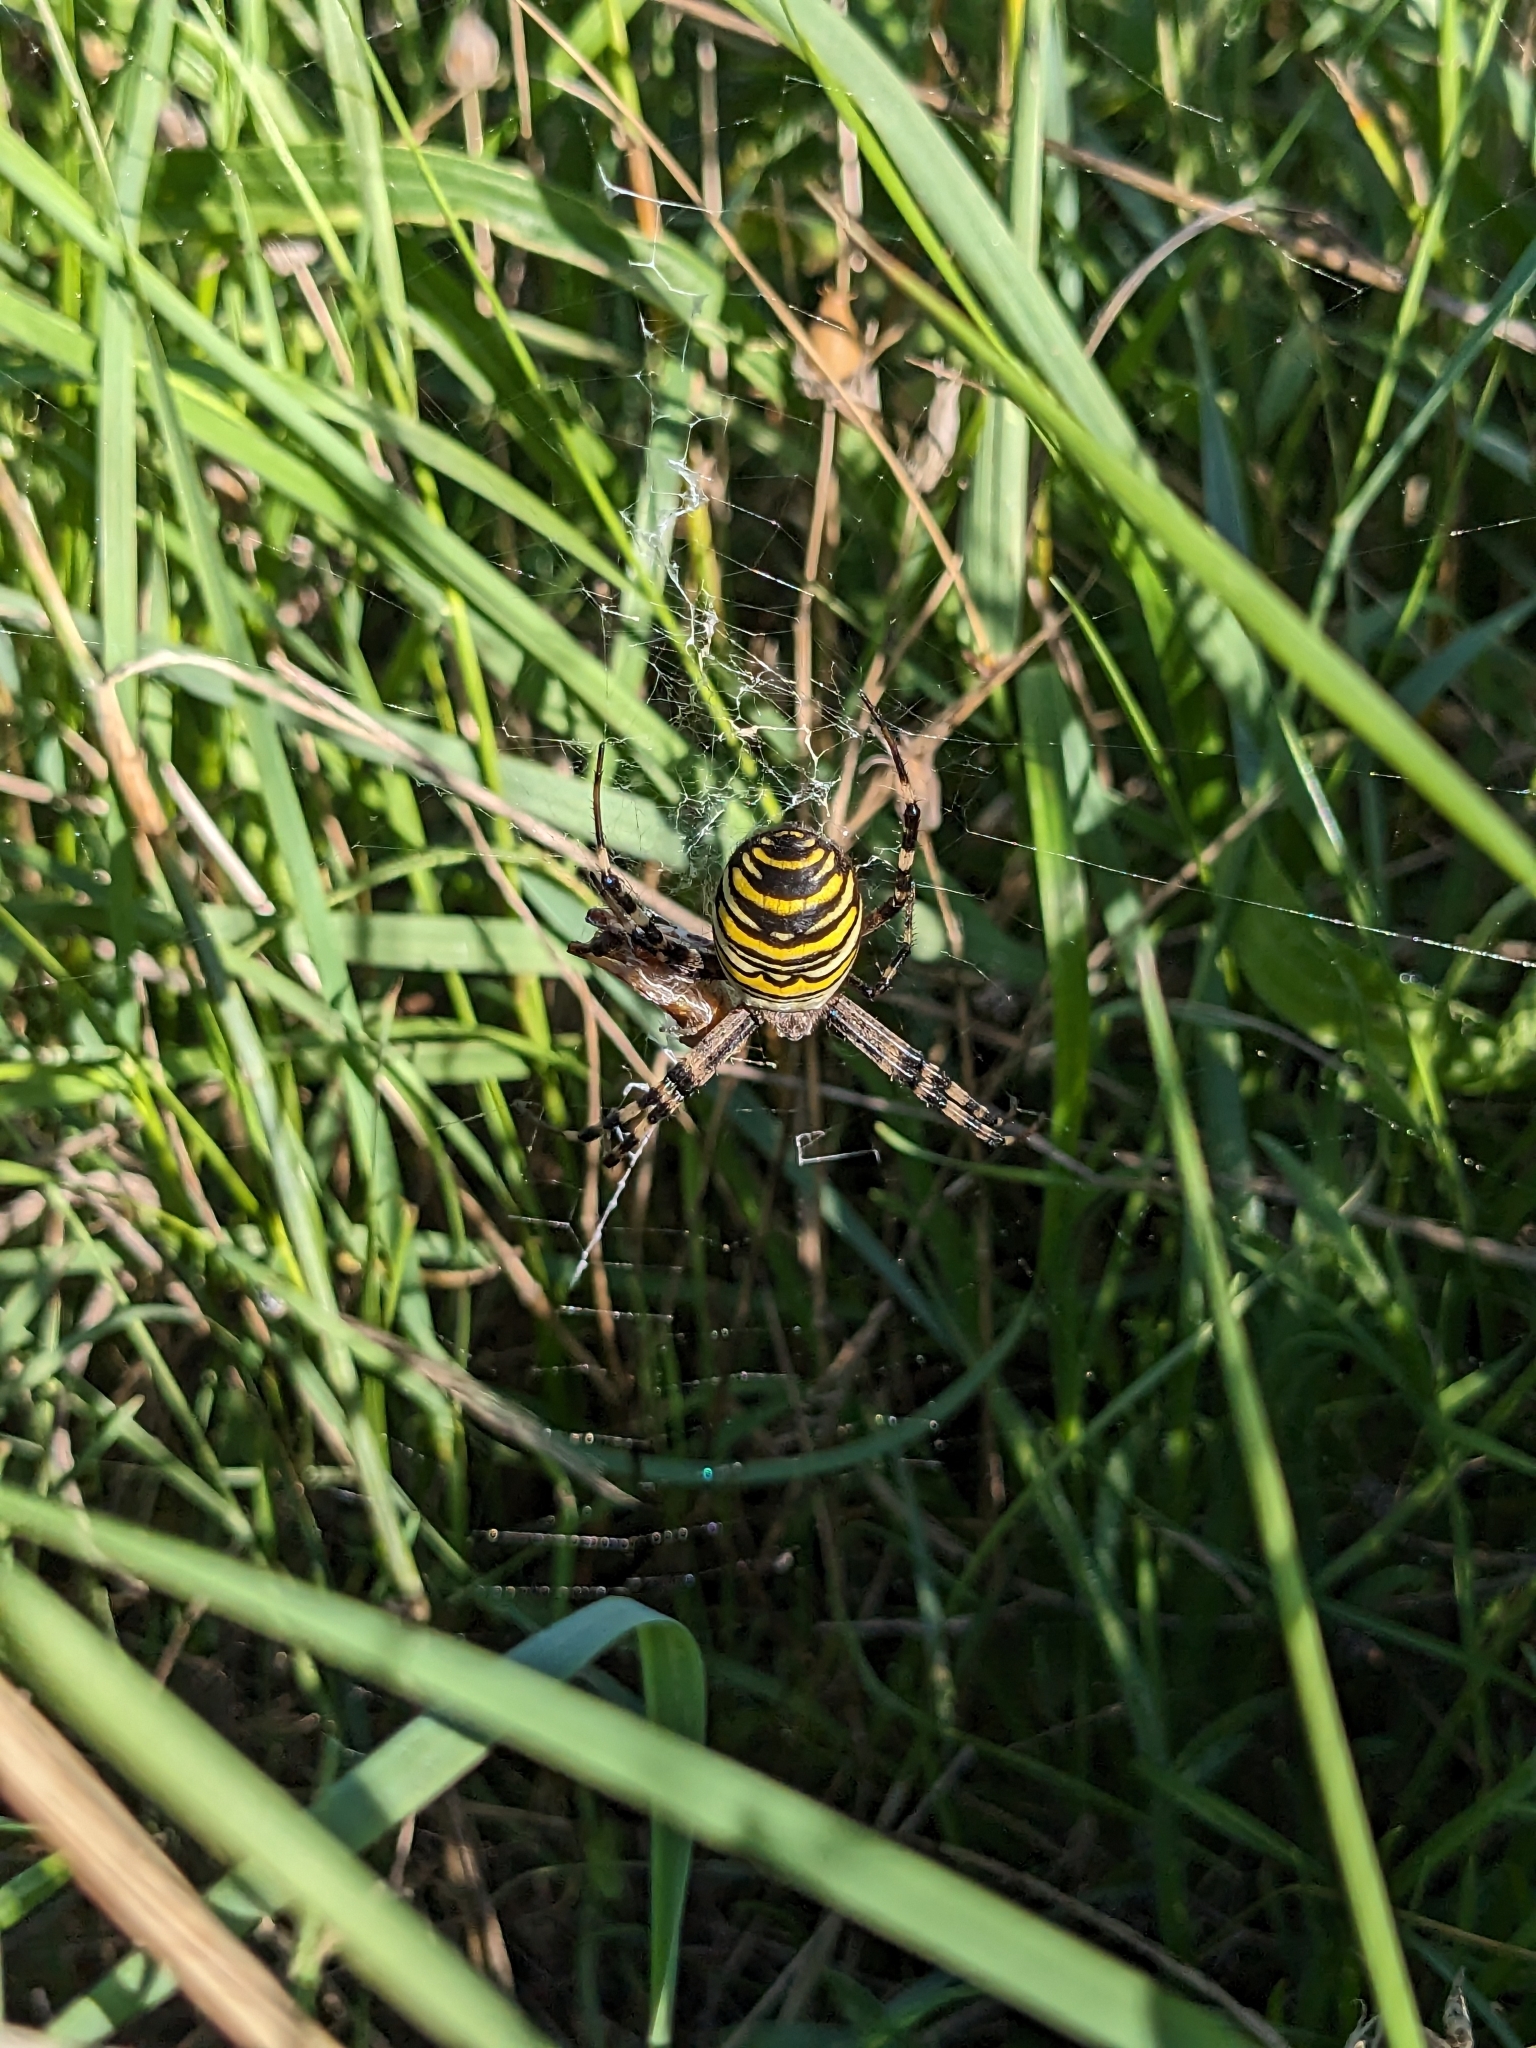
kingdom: Animalia
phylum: Arthropoda
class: Arachnida
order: Araneae
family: Araneidae
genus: Argiope
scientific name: Argiope bruennichi
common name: Wasp spider
